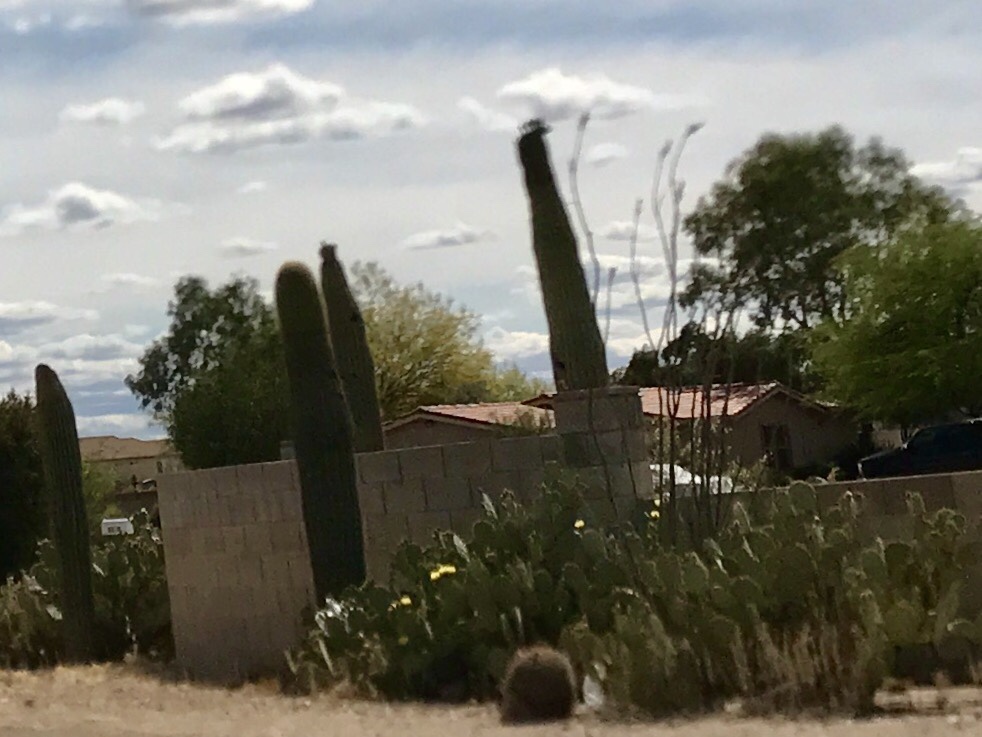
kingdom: Plantae
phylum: Tracheophyta
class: Magnoliopsida
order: Caryophyllales
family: Cactaceae
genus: Carnegiea
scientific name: Carnegiea gigantea
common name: Saguaro
